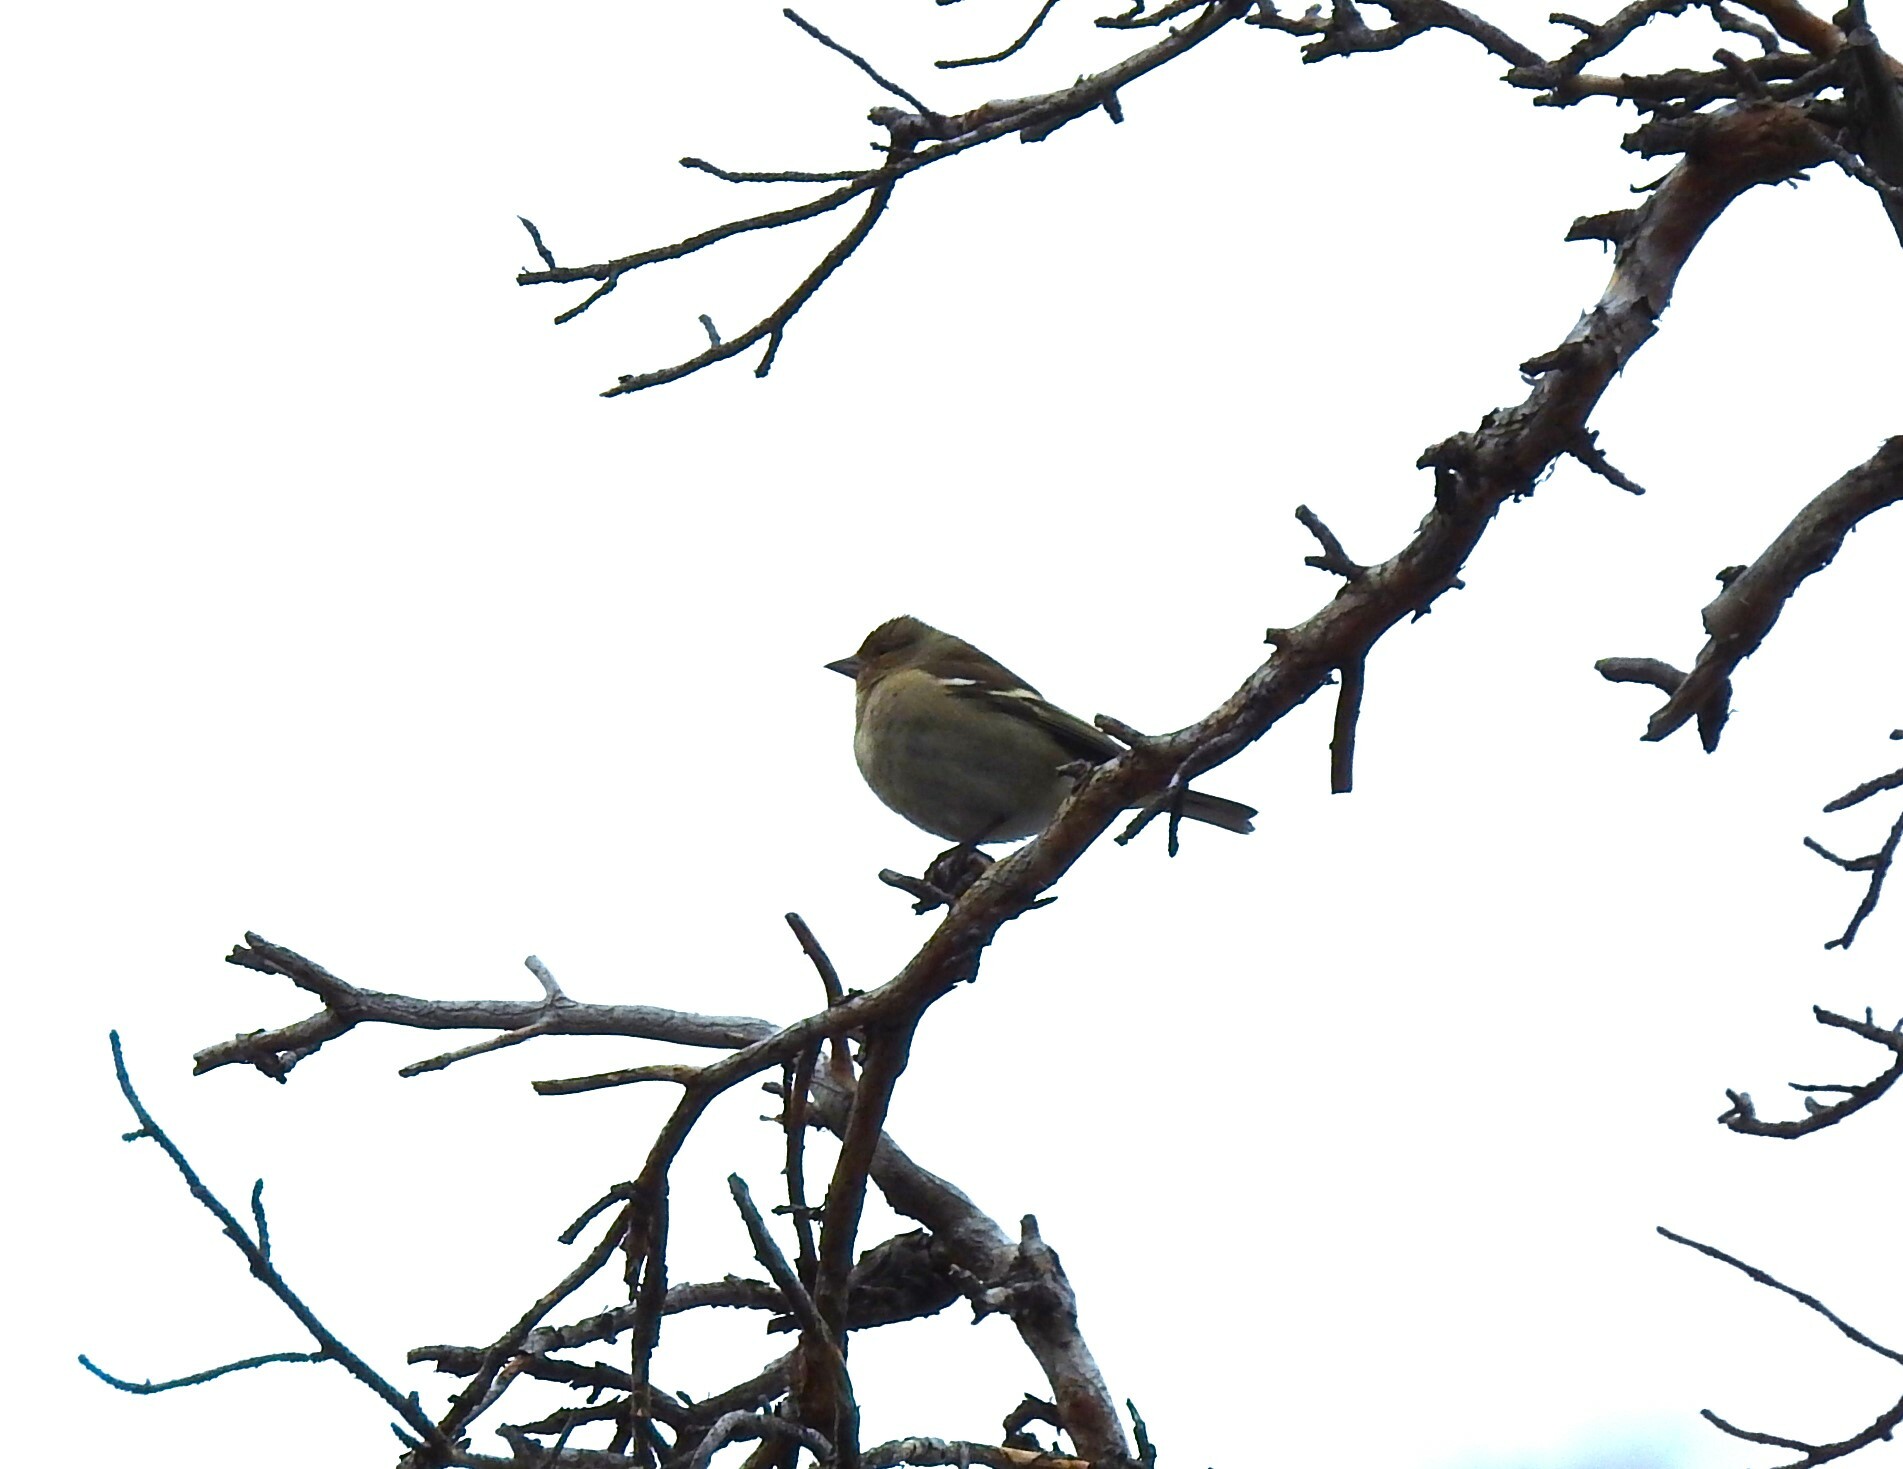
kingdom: Animalia
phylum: Chordata
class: Aves
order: Passeriformes
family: Fringillidae
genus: Fringilla
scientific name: Fringilla coelebs
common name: Common chaffinch
